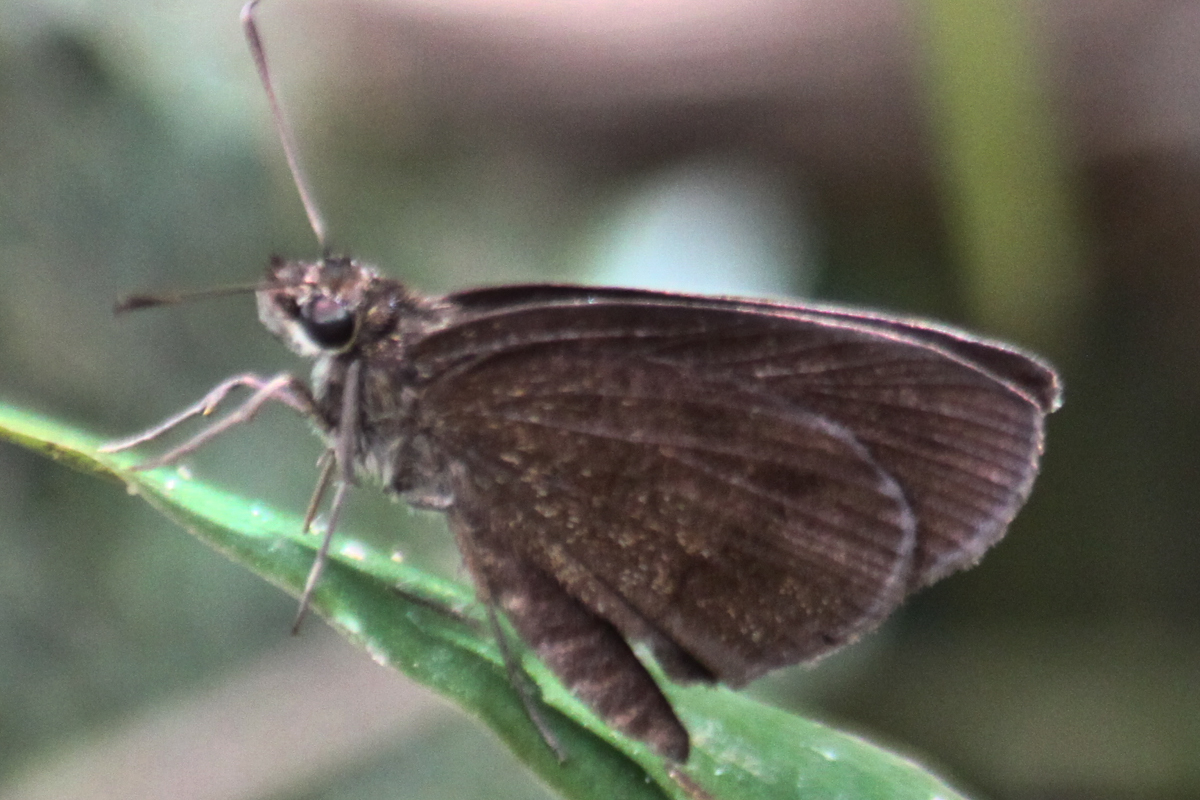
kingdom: Animalia
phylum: Arthropoda
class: Insecta
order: Lepidoptera
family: Hesperiidae
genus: Astictopterus
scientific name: Astictopterus jama
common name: Forest hopper
